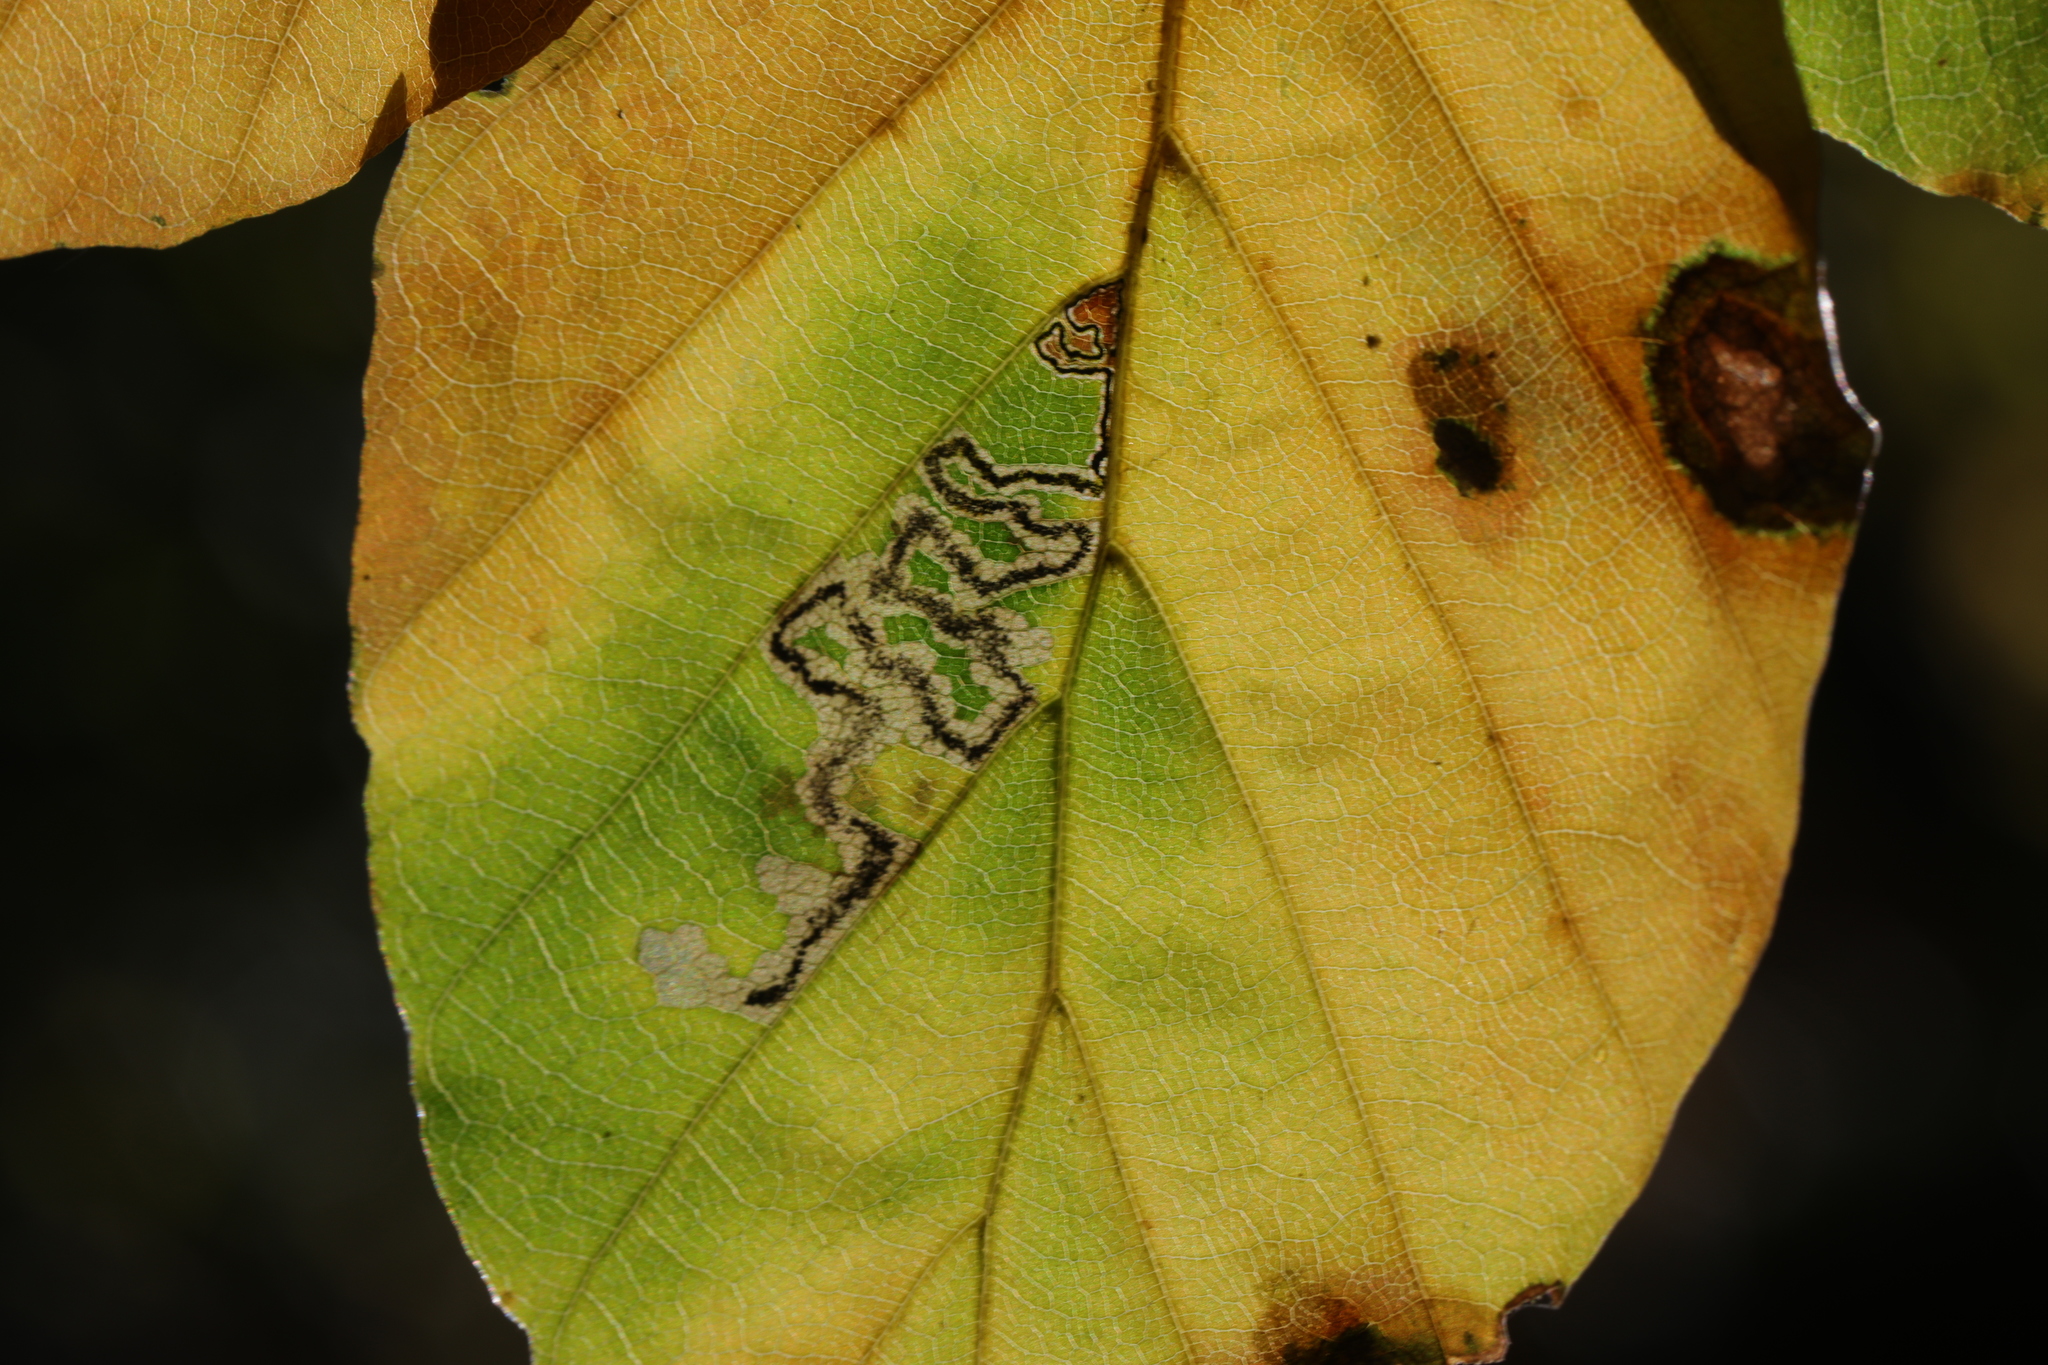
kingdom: Animalia
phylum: Arthropoda
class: Insecta
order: Lepidoptera
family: Nepticulidae
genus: Stigmella
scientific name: Stigmella tityrella
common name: Small beech pigmy
